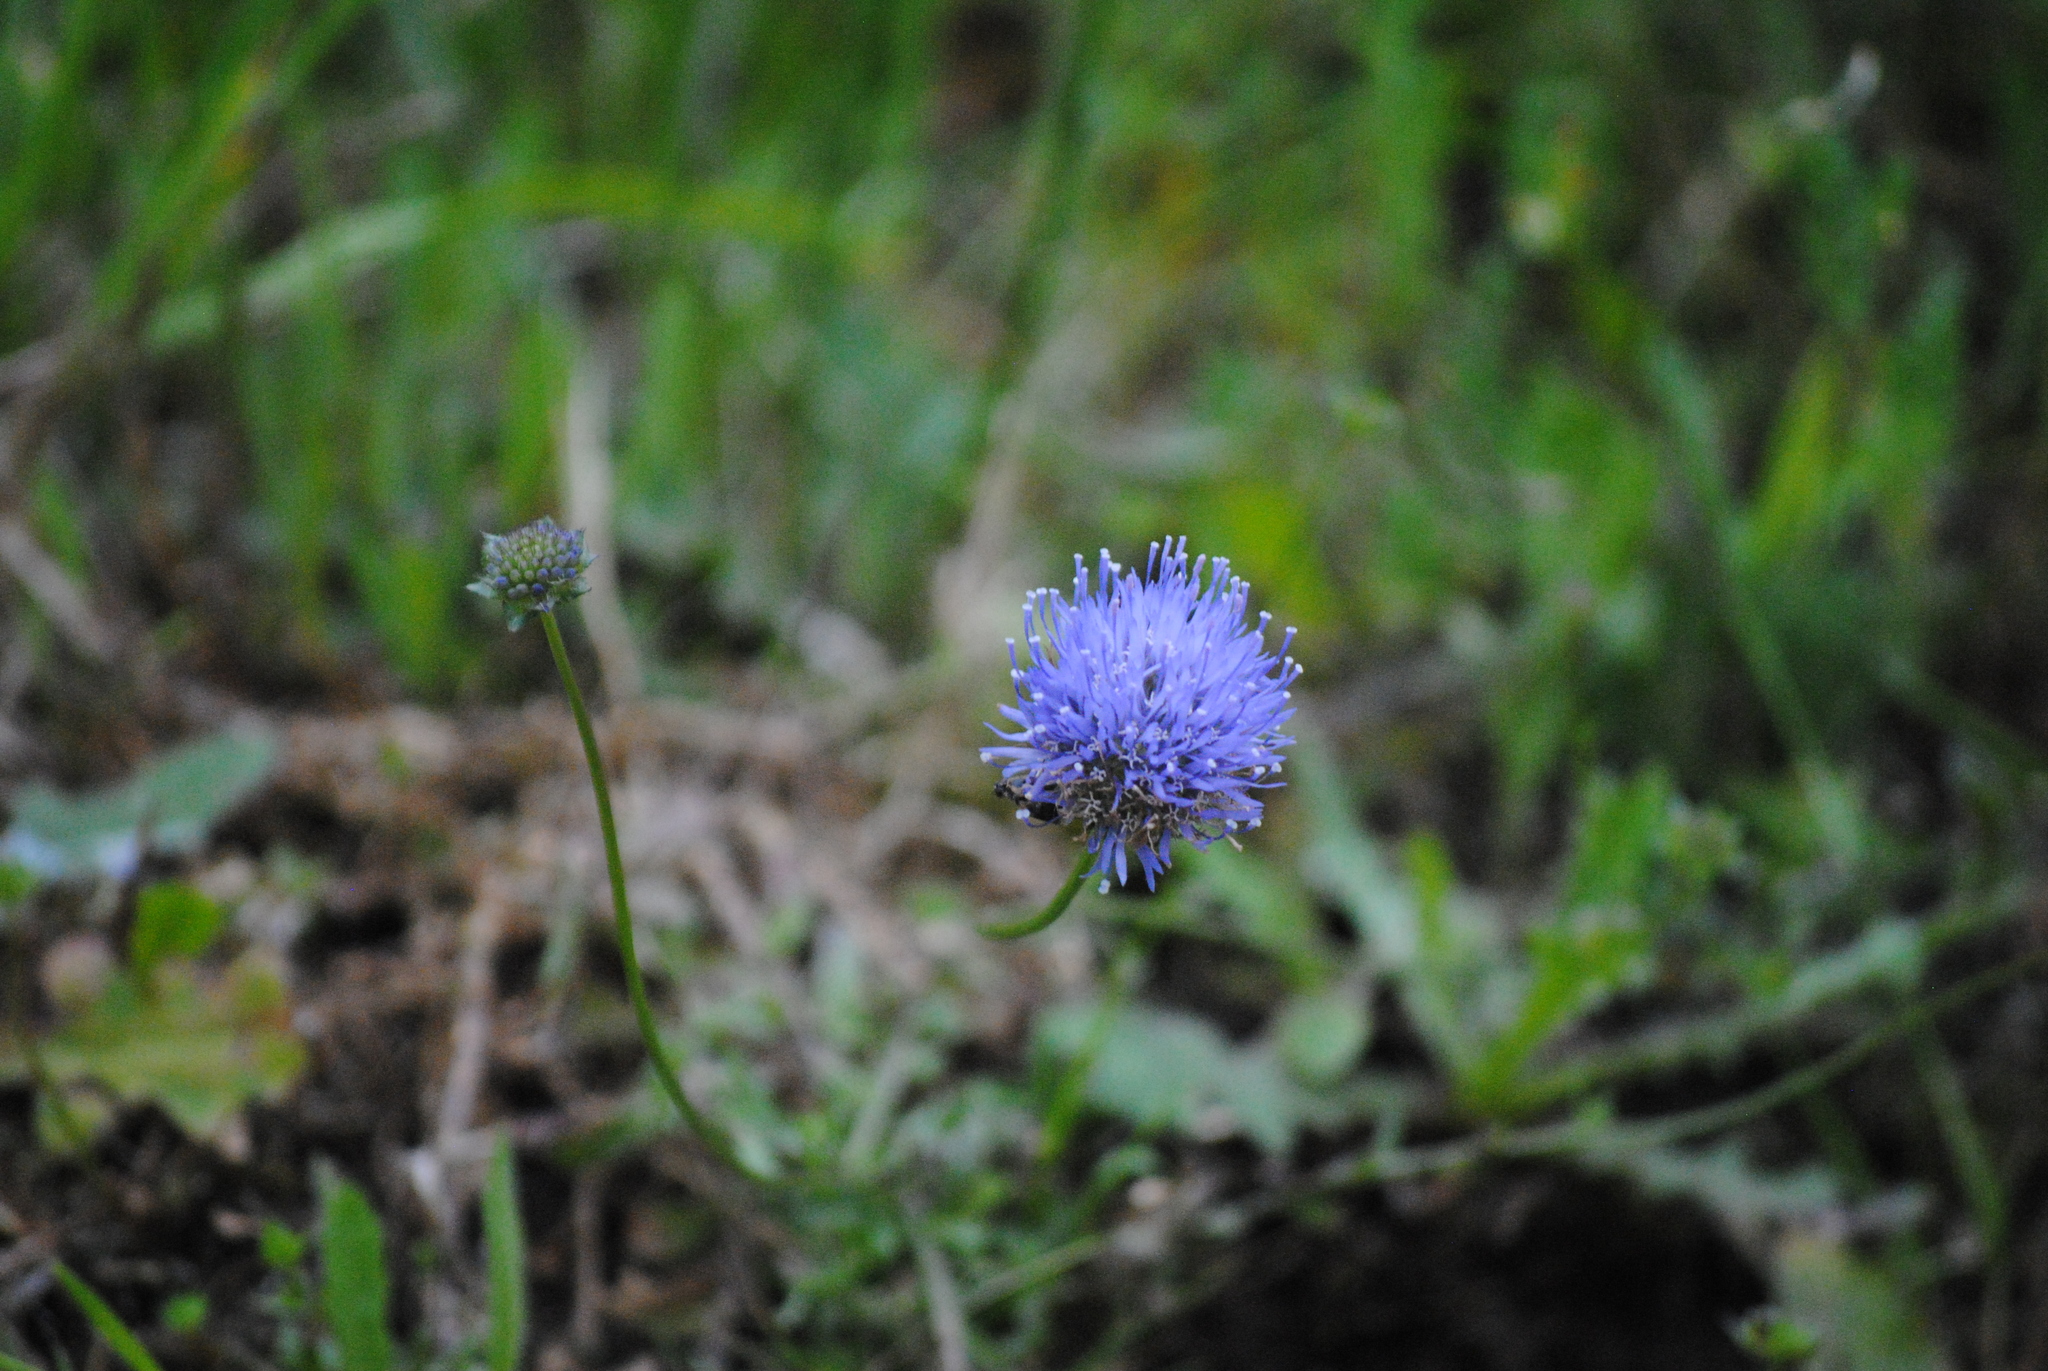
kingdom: Plantae
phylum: Tracheophyta
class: Magnoliopsida
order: Asterales
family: Campanulaceae
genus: Jasione
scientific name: Jasione montana
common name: Sheep's-bit
